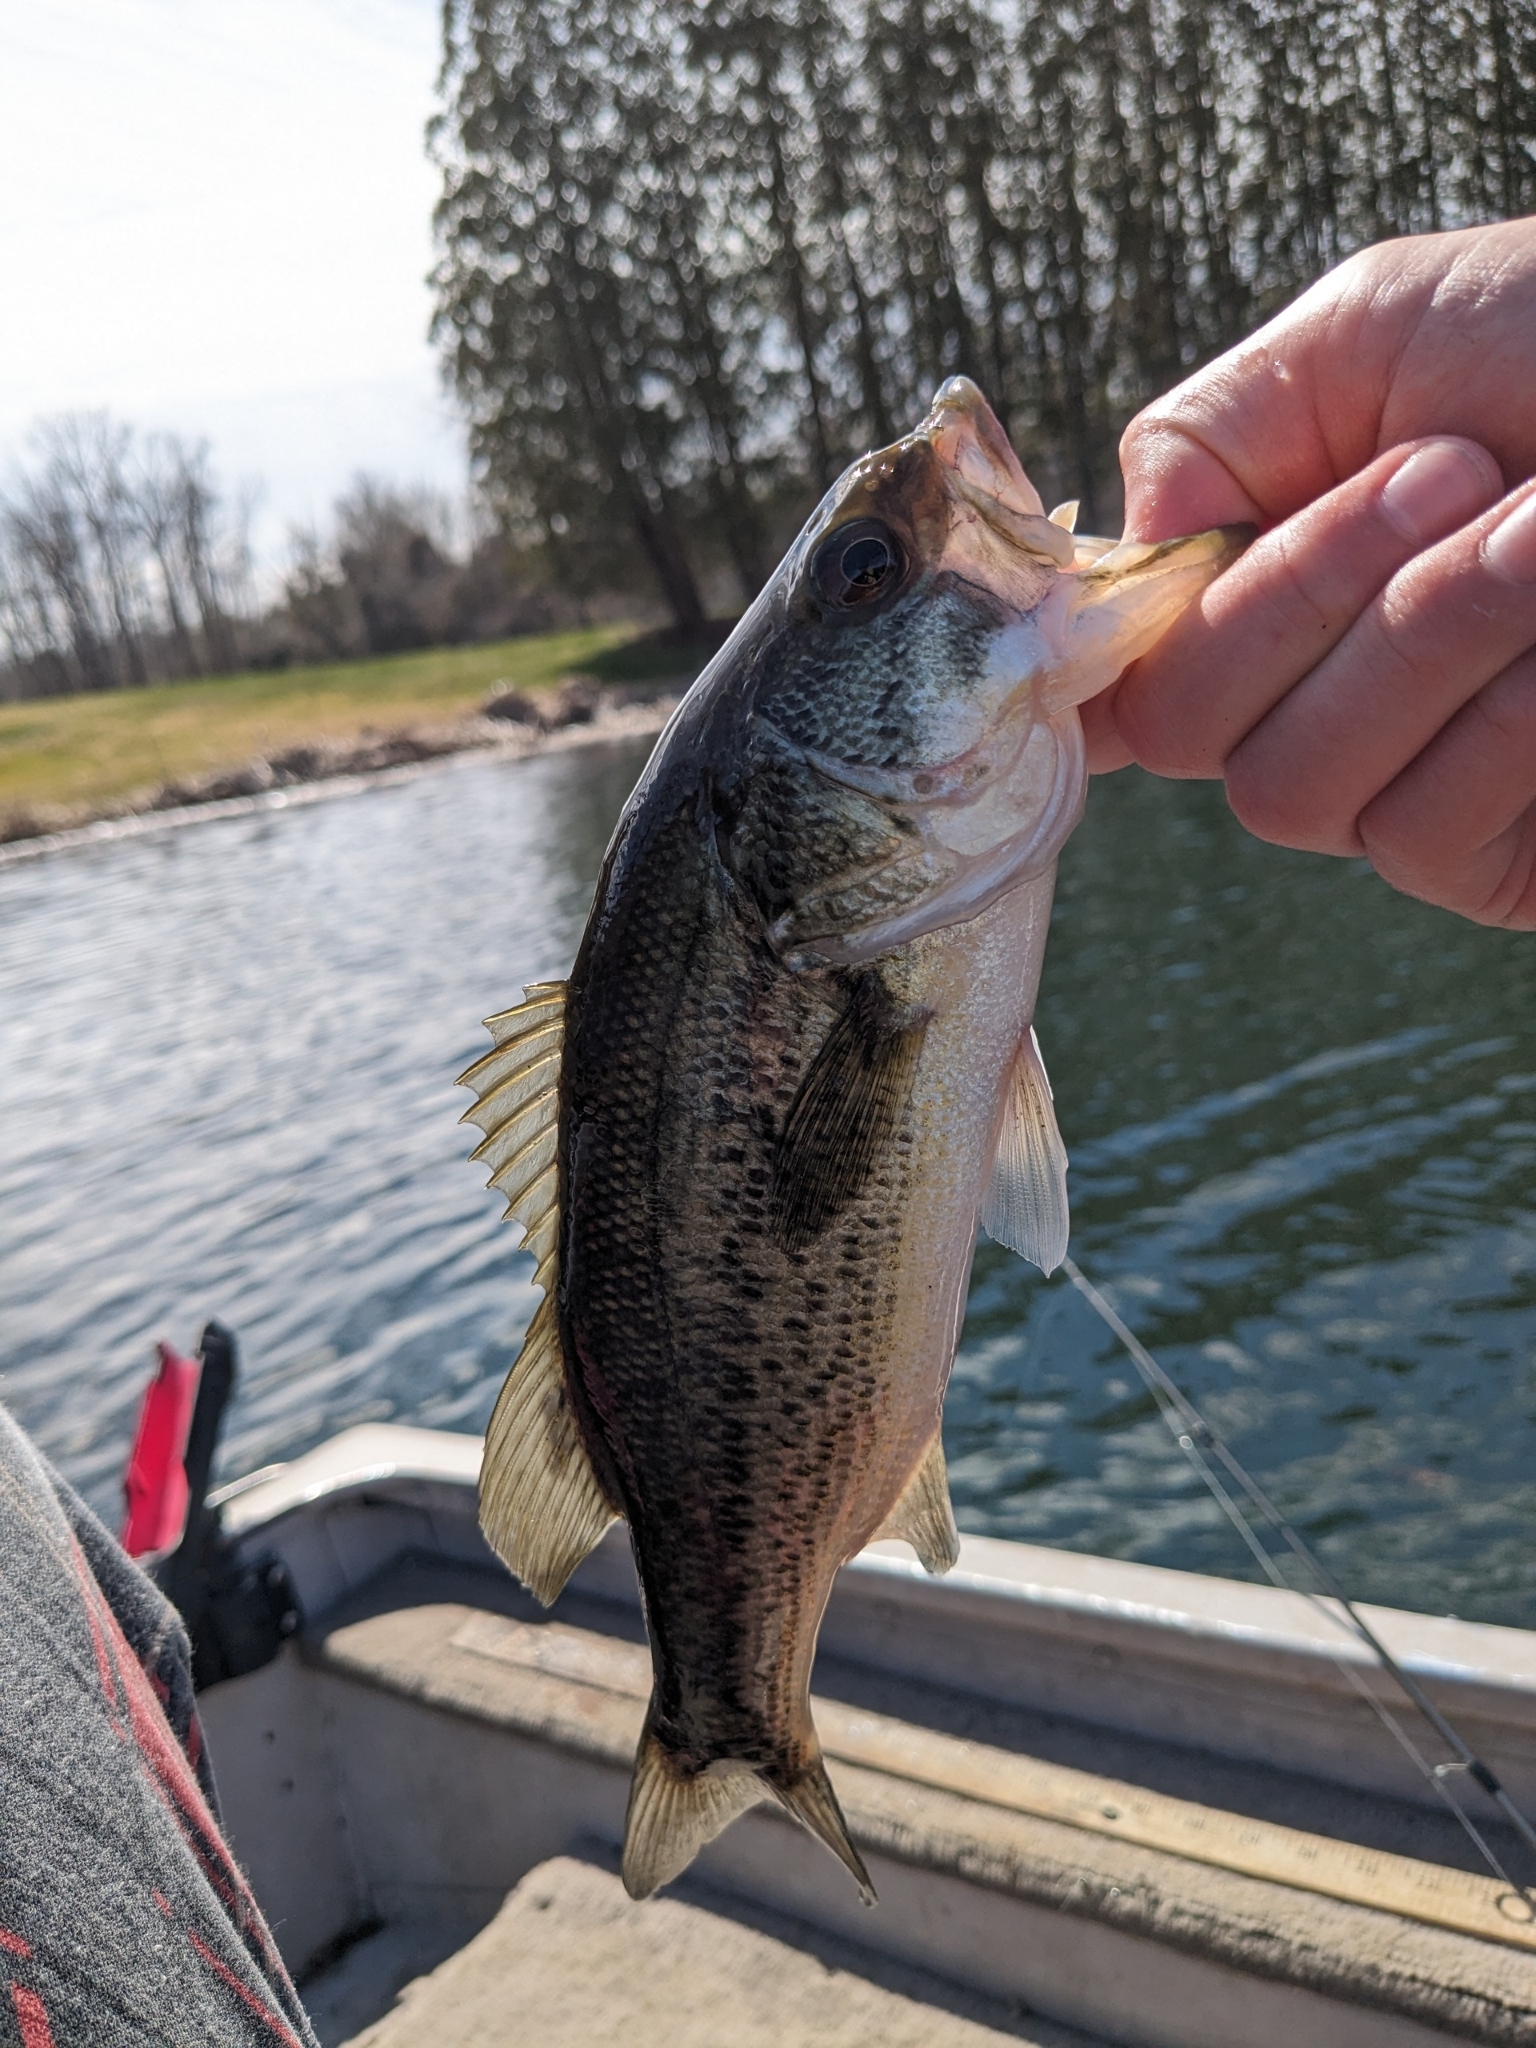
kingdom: Animalia
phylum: Chordata
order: Perciformes
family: Centrarchidae
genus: Micropterus
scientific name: Micropterus
